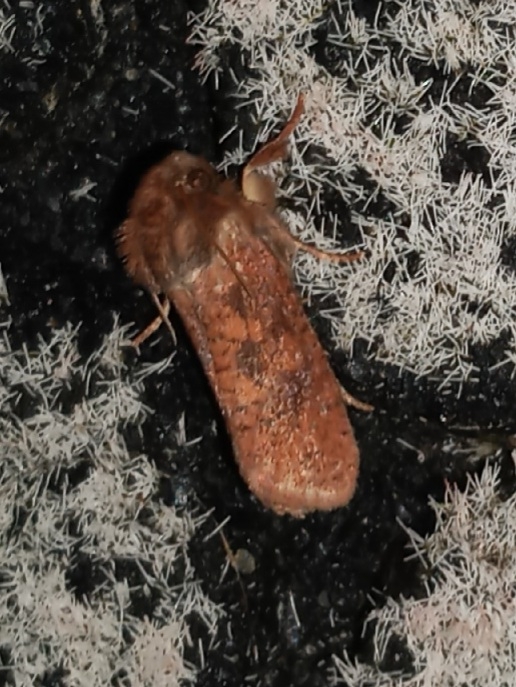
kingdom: Animalia
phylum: Arthropoda
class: Insecta
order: Lepidoptera
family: Tineidae
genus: Acrolophus
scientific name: Acrolophus plumifrontella
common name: Eastern grass tubeworm moth
